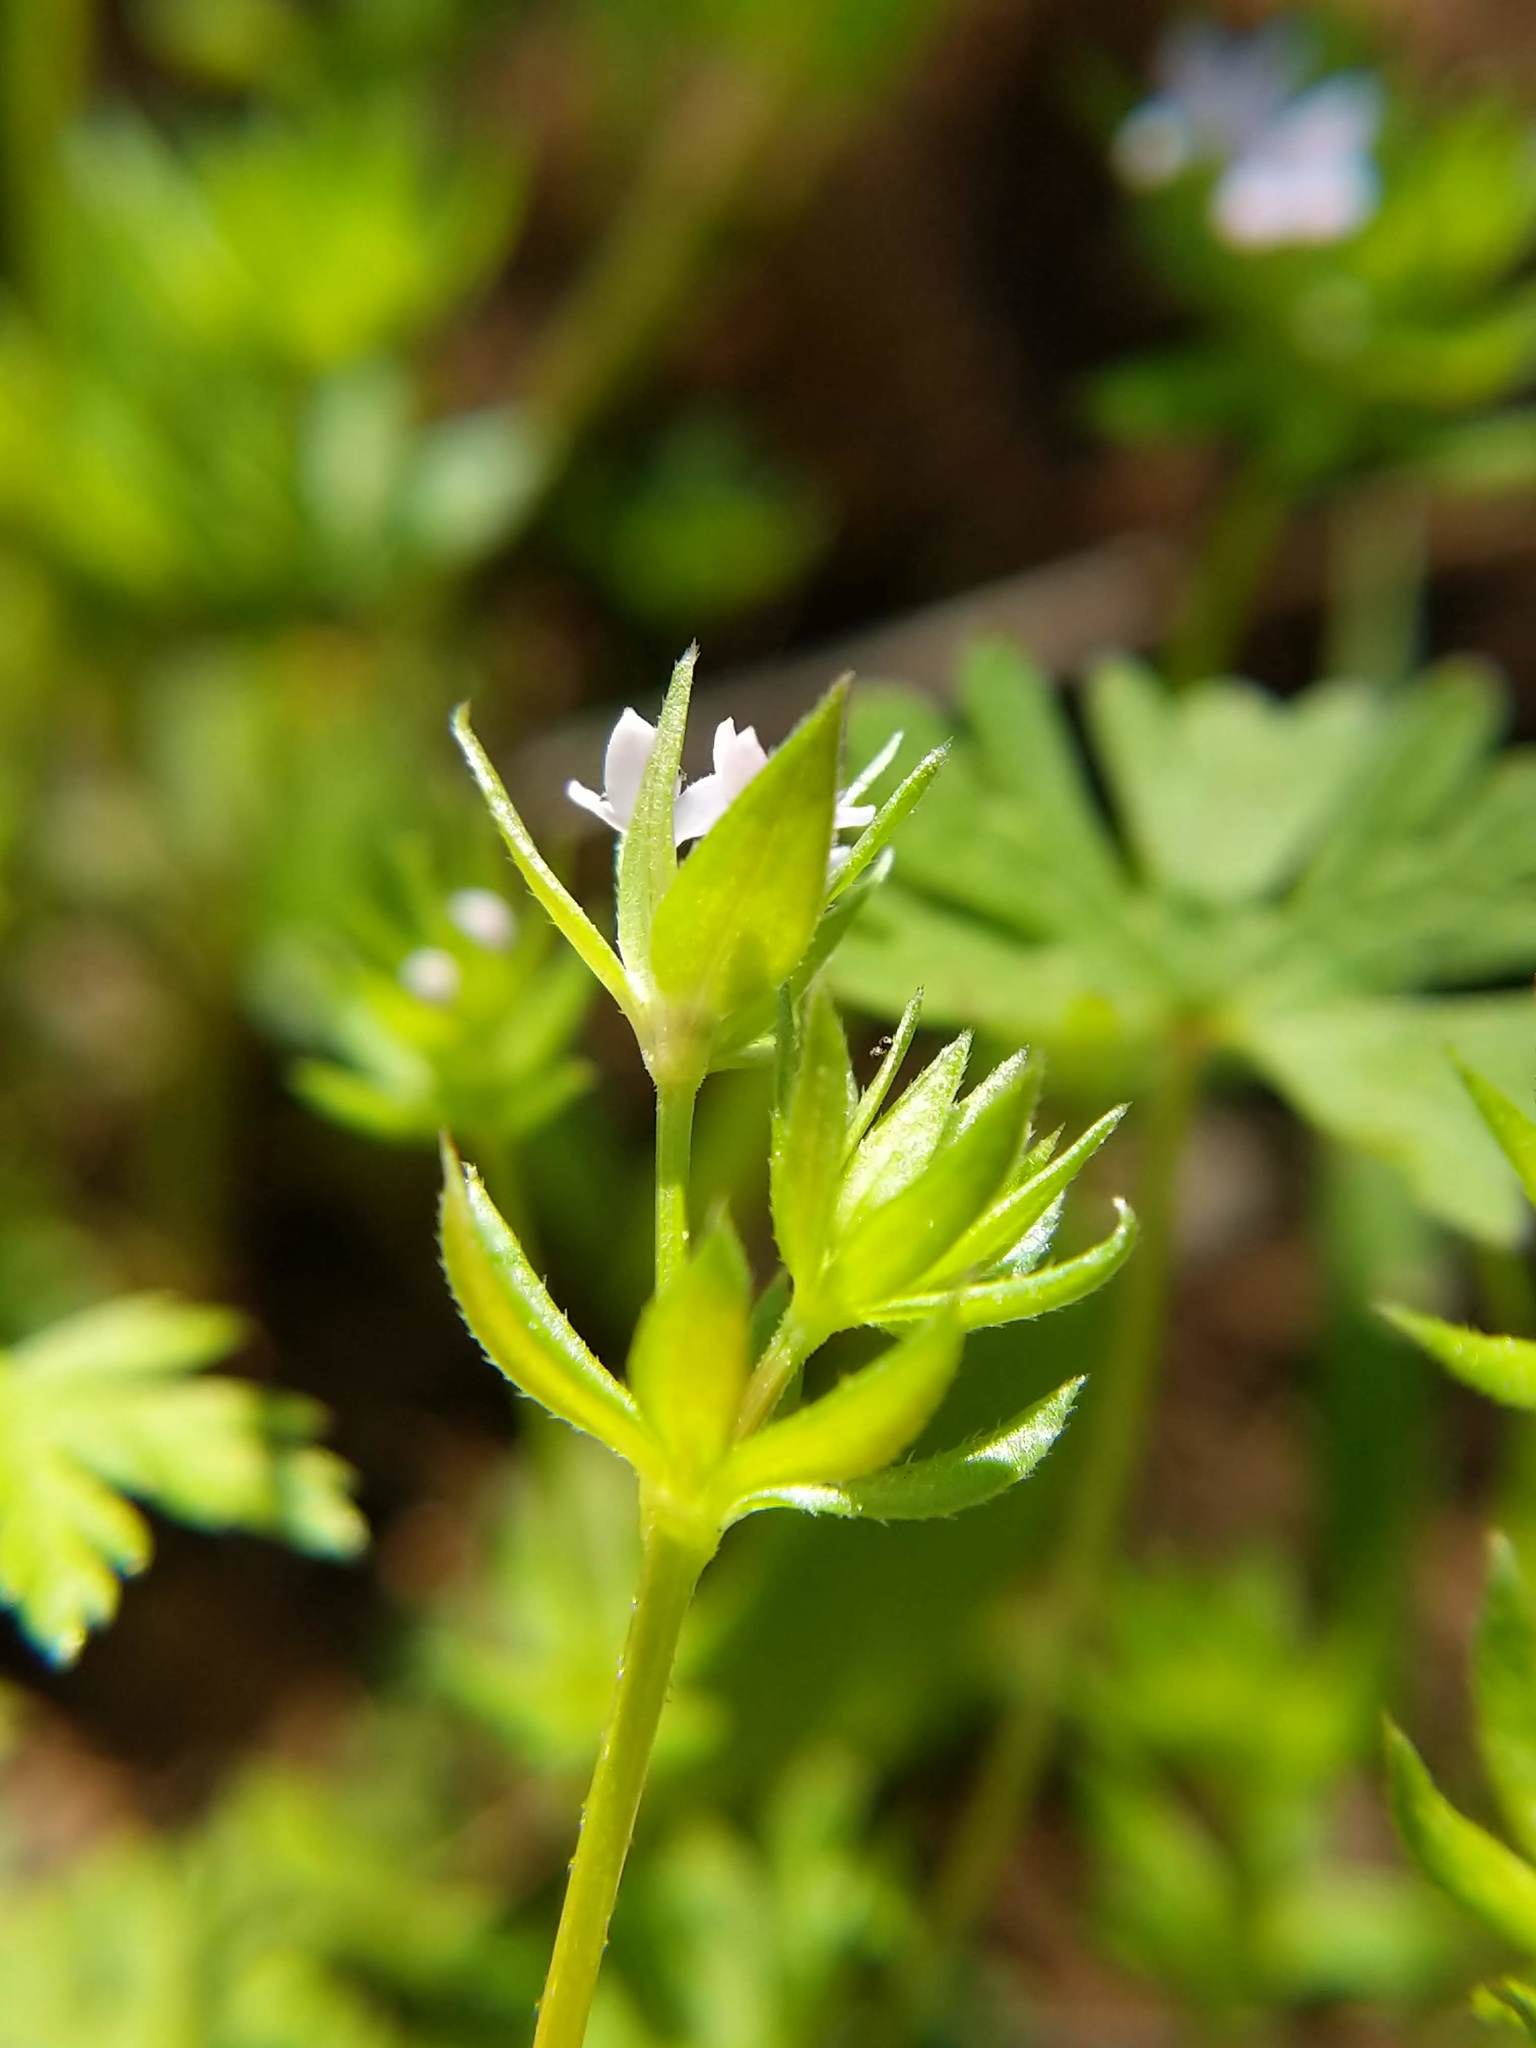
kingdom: Plantae
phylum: Tracheophyta
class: Magnoliopsida
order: Gentianales
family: Rubiaceae
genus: Sherardia
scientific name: Sherardia arvensis
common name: Field madder
